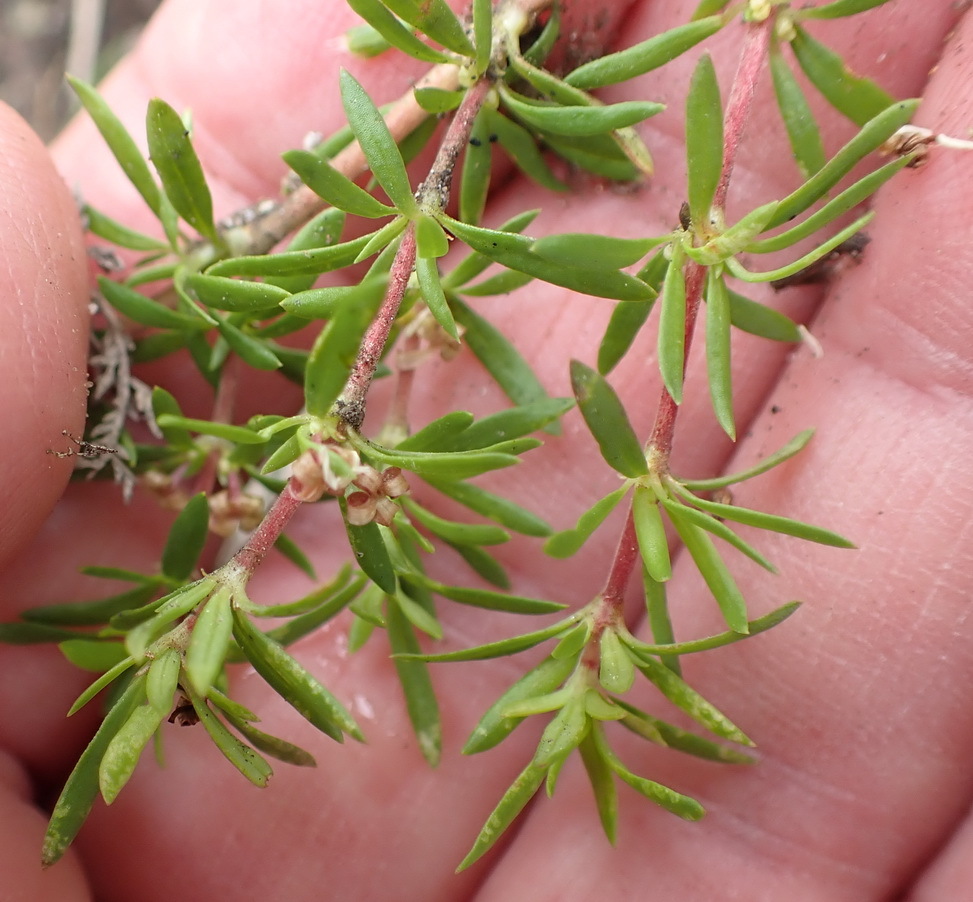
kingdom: Plantae
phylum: Tracheophyta
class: Magnoliopsida
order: Gentianales
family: Rubiaceae
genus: Anthospermum
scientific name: Anthospermum prostratum
